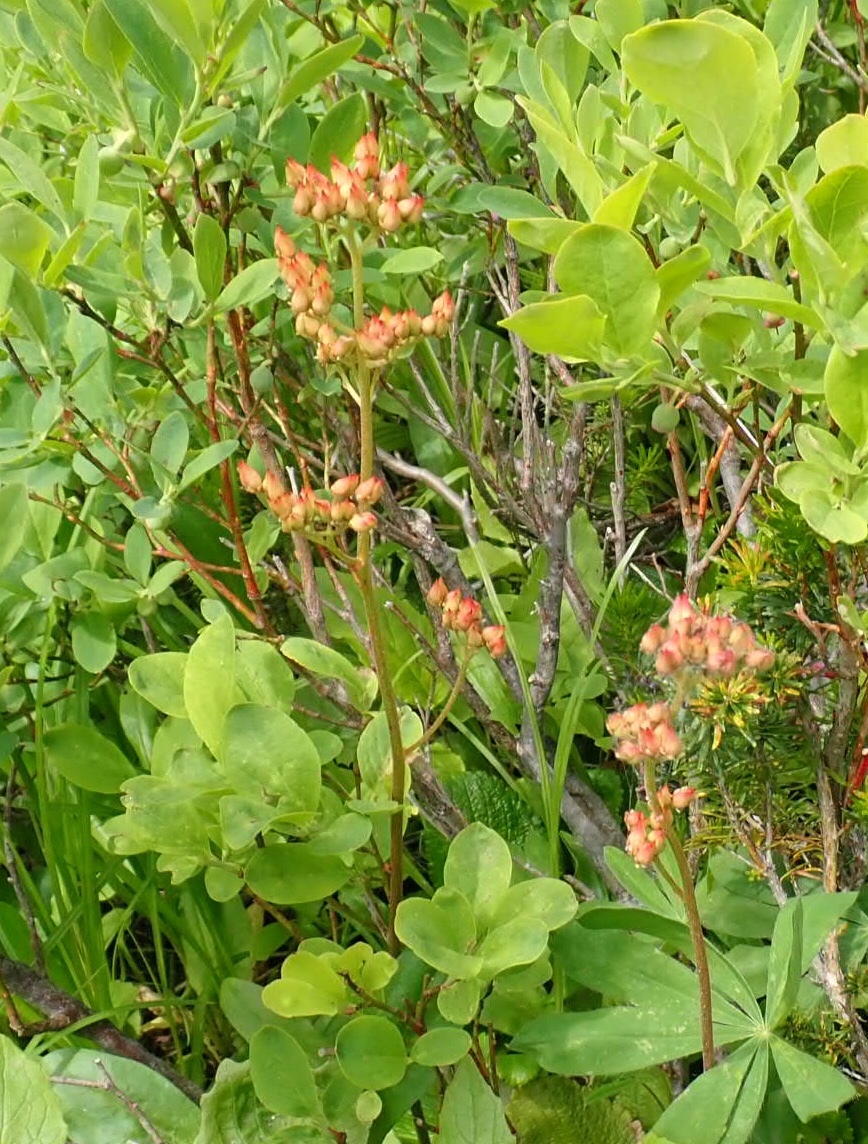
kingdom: Plantae
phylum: Tracheophyta
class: Magnoliopsida
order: Saxifragales
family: Saxifragaceae
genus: Leptarrhena
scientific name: Leptarrhena pyrolifolia
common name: Leatherleaf-saxifrage
